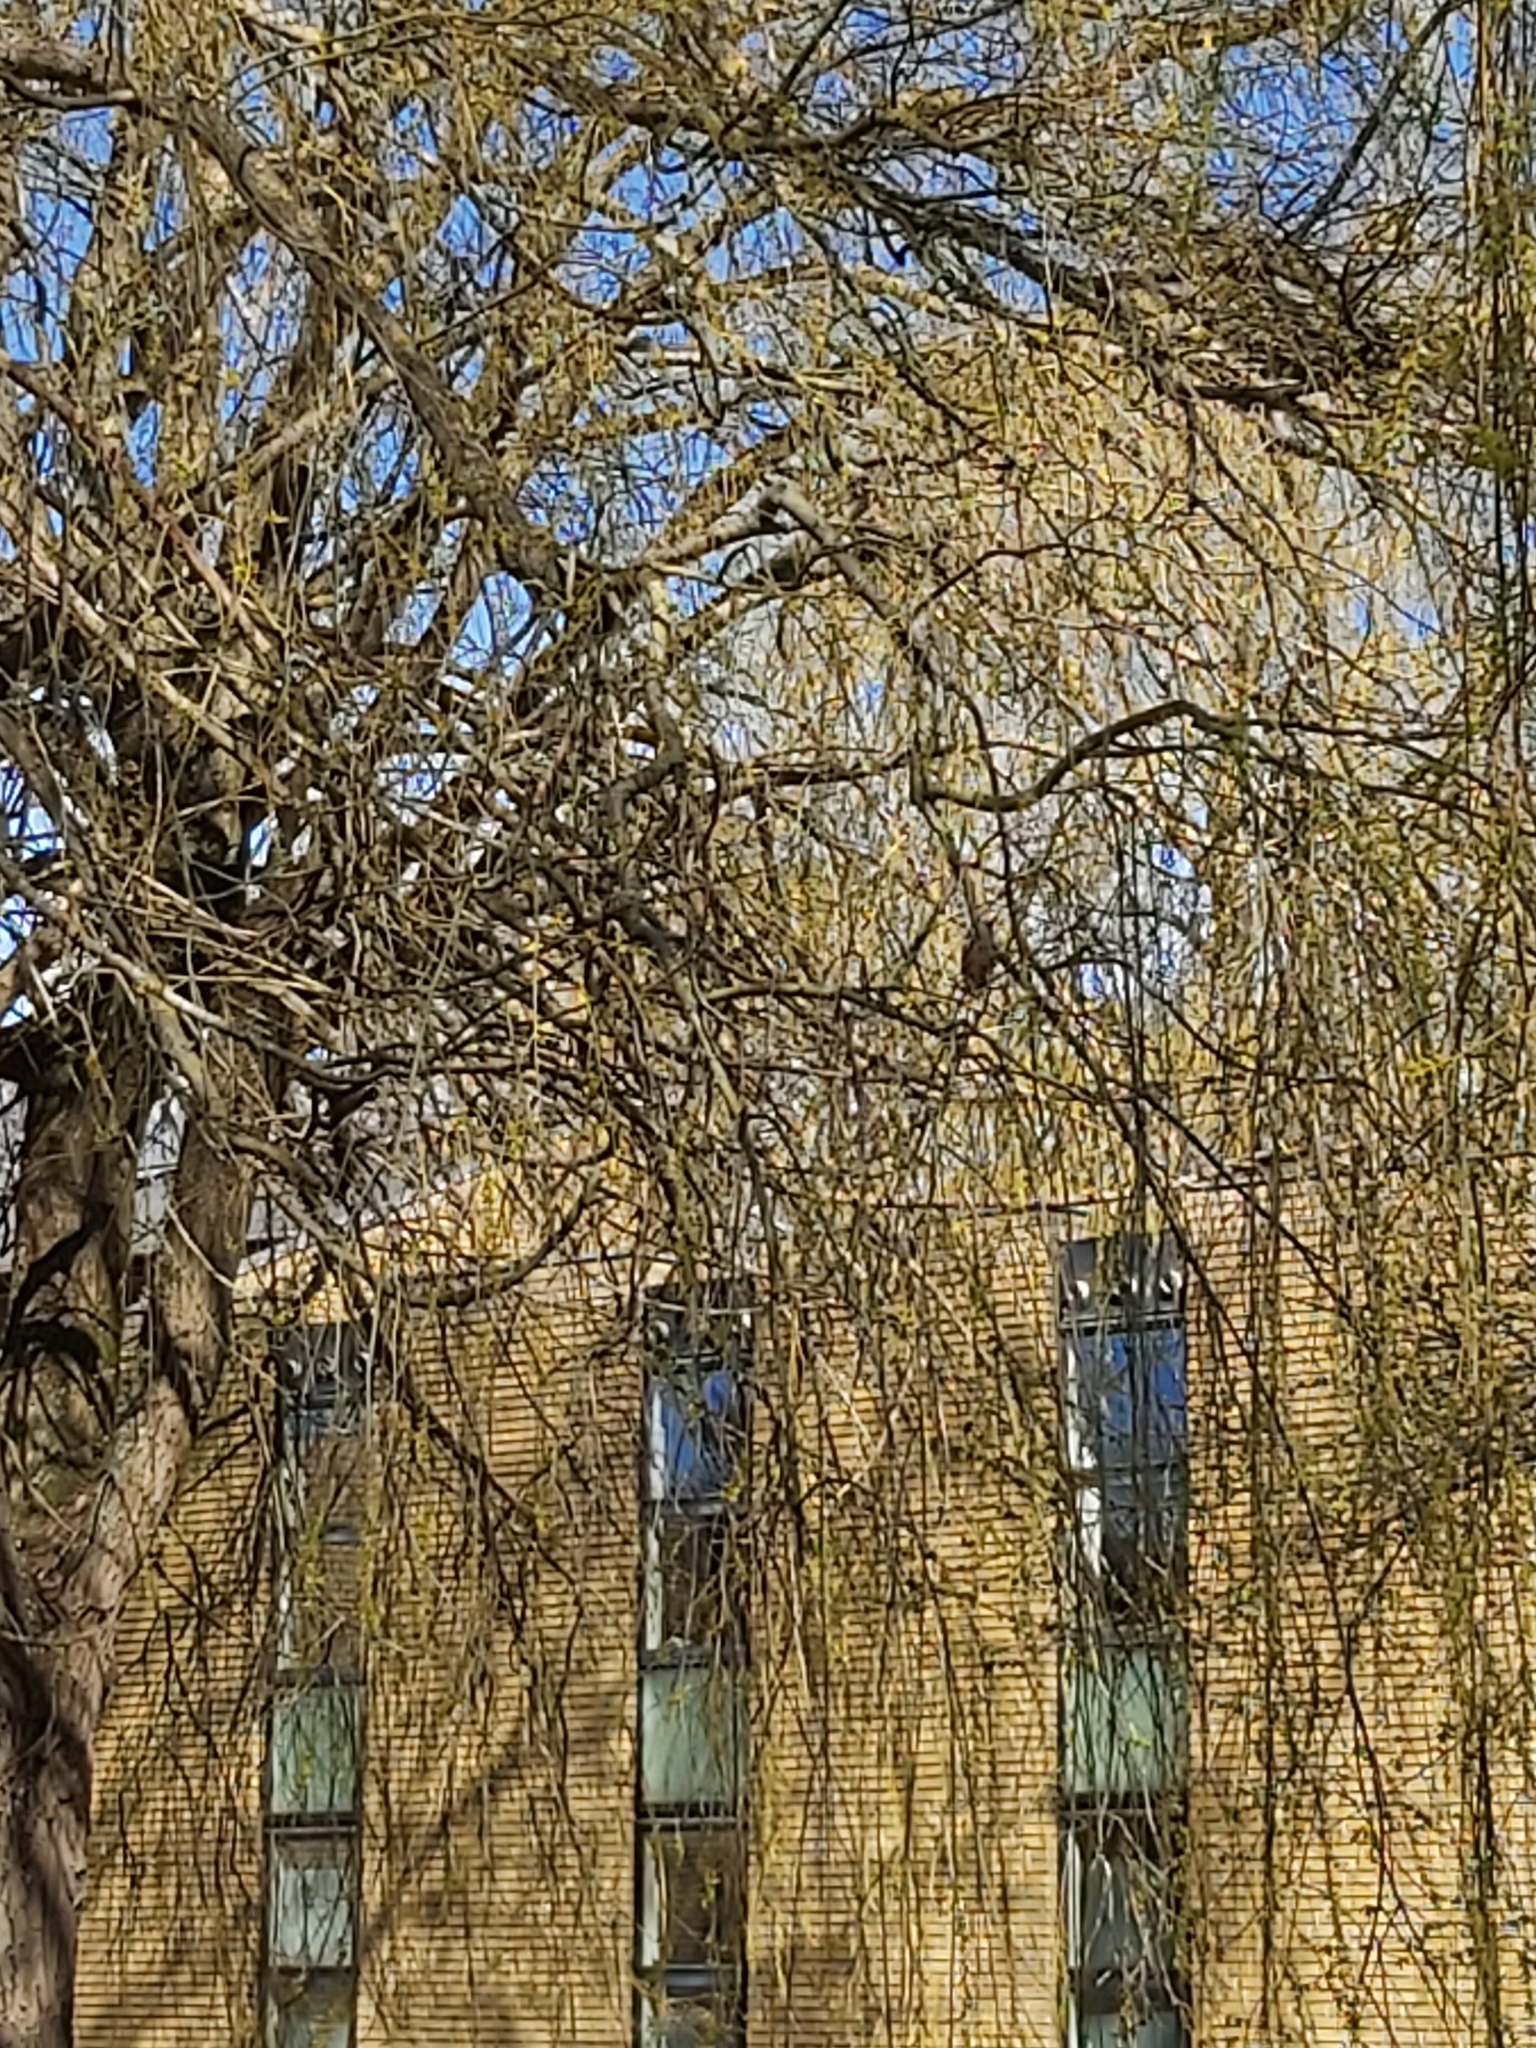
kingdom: Animalia
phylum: Chordata
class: Aves
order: Piciformes
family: Picidae
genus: Dendrocopos
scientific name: Dendrocopos major
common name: Great spotted woodpecker
